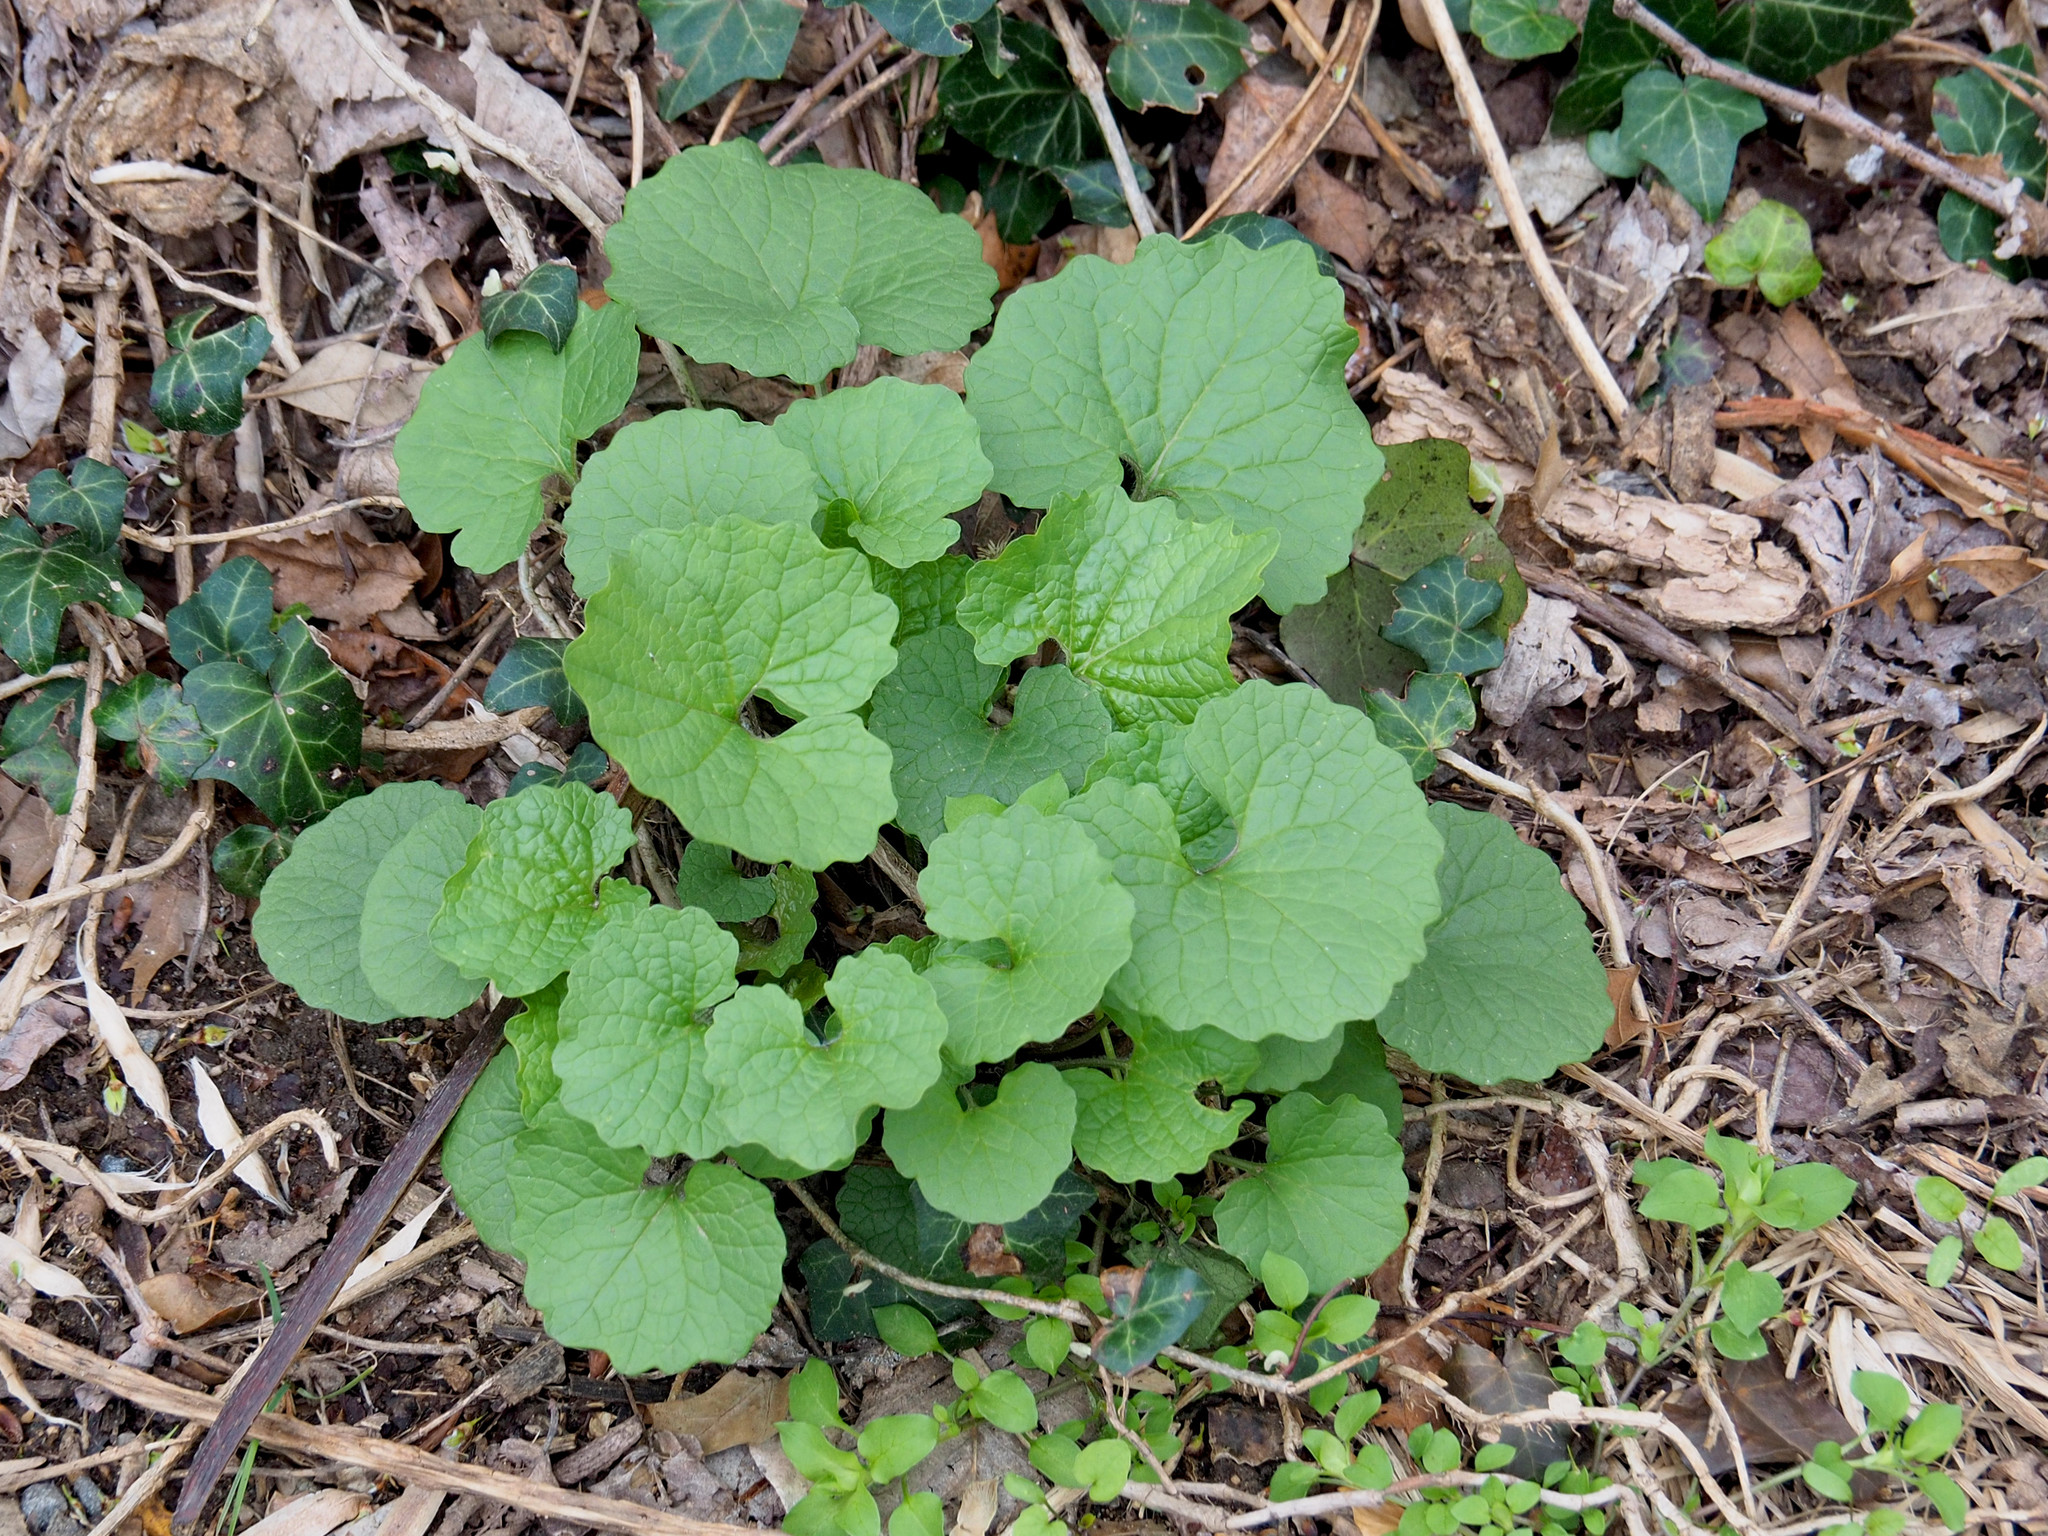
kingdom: Plantae
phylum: Tracheophyta
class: Magnoliopsida
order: Brassicales
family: Brassicaceae
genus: Alliaria
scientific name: Alliaria petiolata
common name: Garlic mustard
